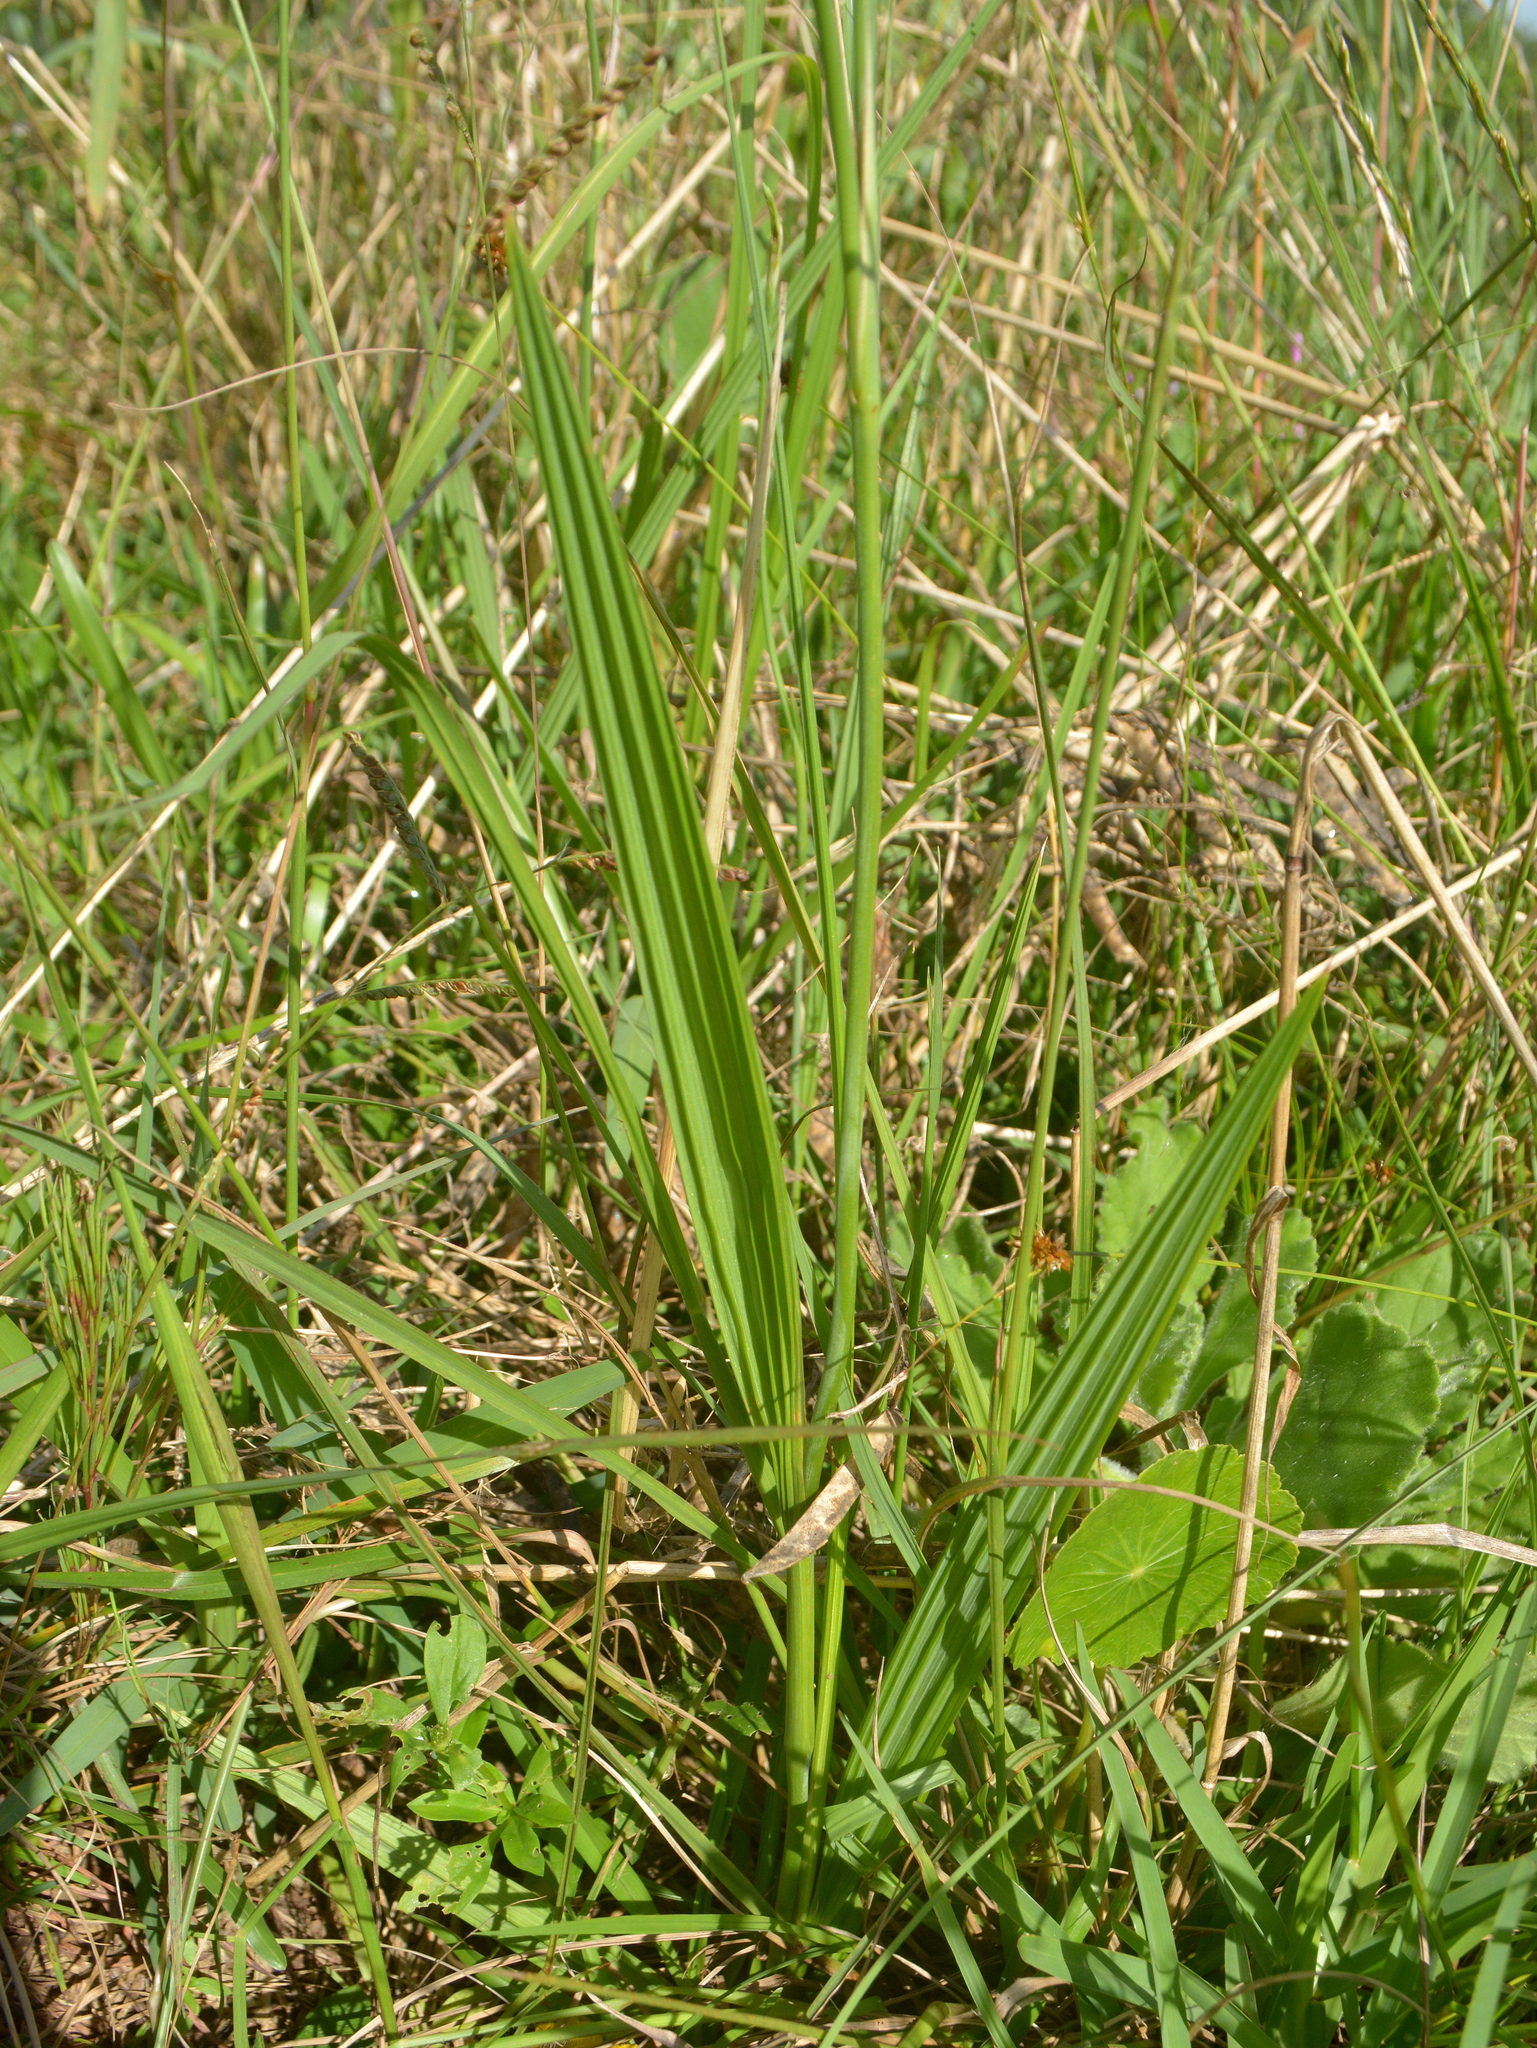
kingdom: Plantae
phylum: Tracheophyta
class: Liliopsida
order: Asparagales
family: Iridaceae
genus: Cypella
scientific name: Cypella herbertii
